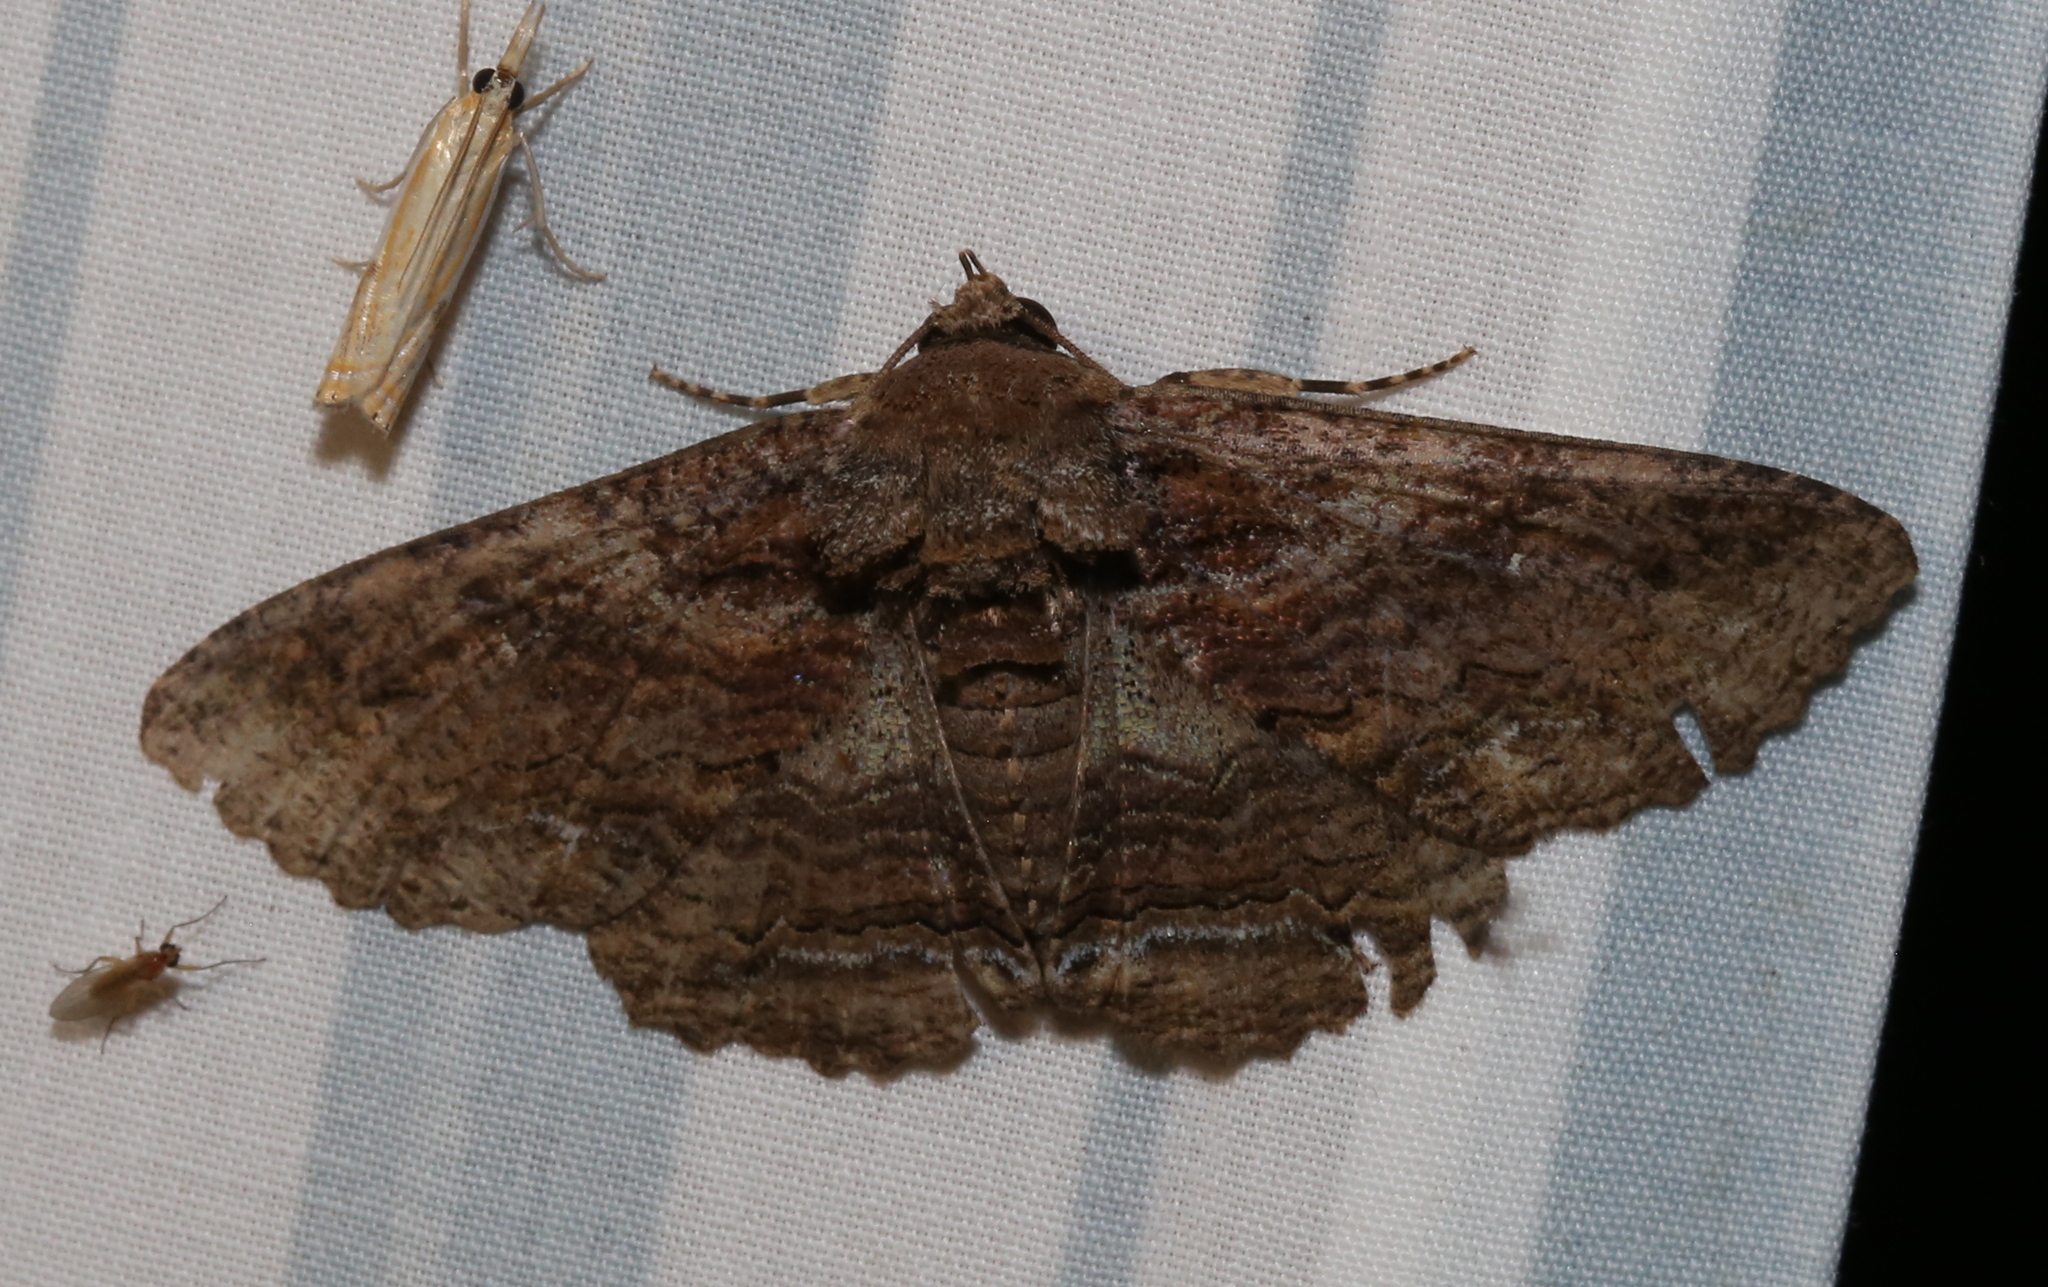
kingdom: Animalia
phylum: Arthropoda
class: Insecta
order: Lepidoptera
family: Erebidae
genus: Zale
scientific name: Zale lunata
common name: Lunate zale moth
